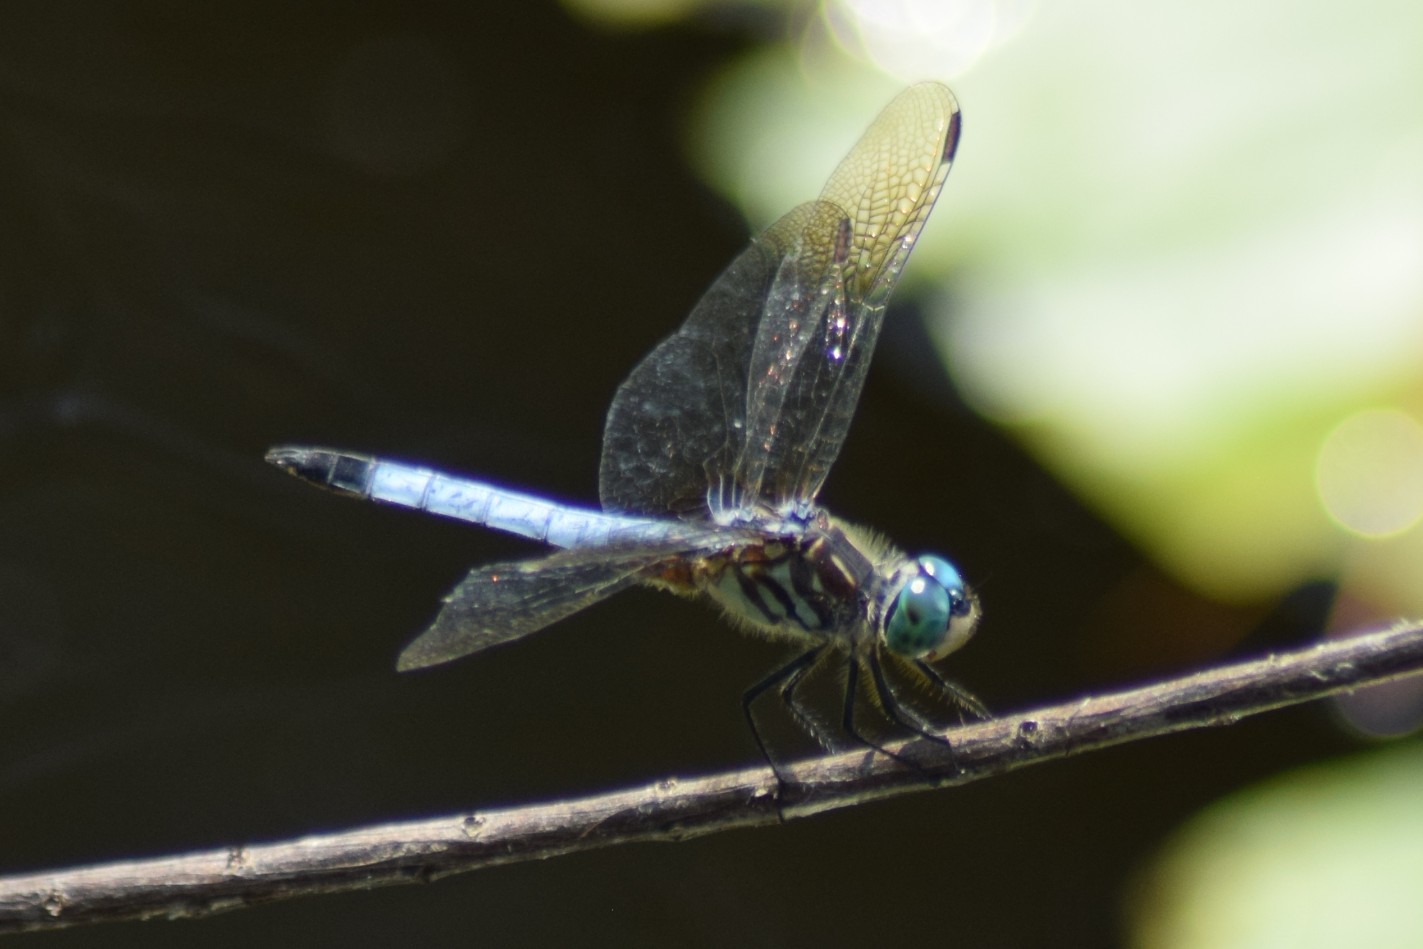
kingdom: Animalia
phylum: Arthropoda
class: Insecta
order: Odonata
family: Libellulidae
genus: Pachydiplax
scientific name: Pachydiplax longipennis
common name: Blue dasher
